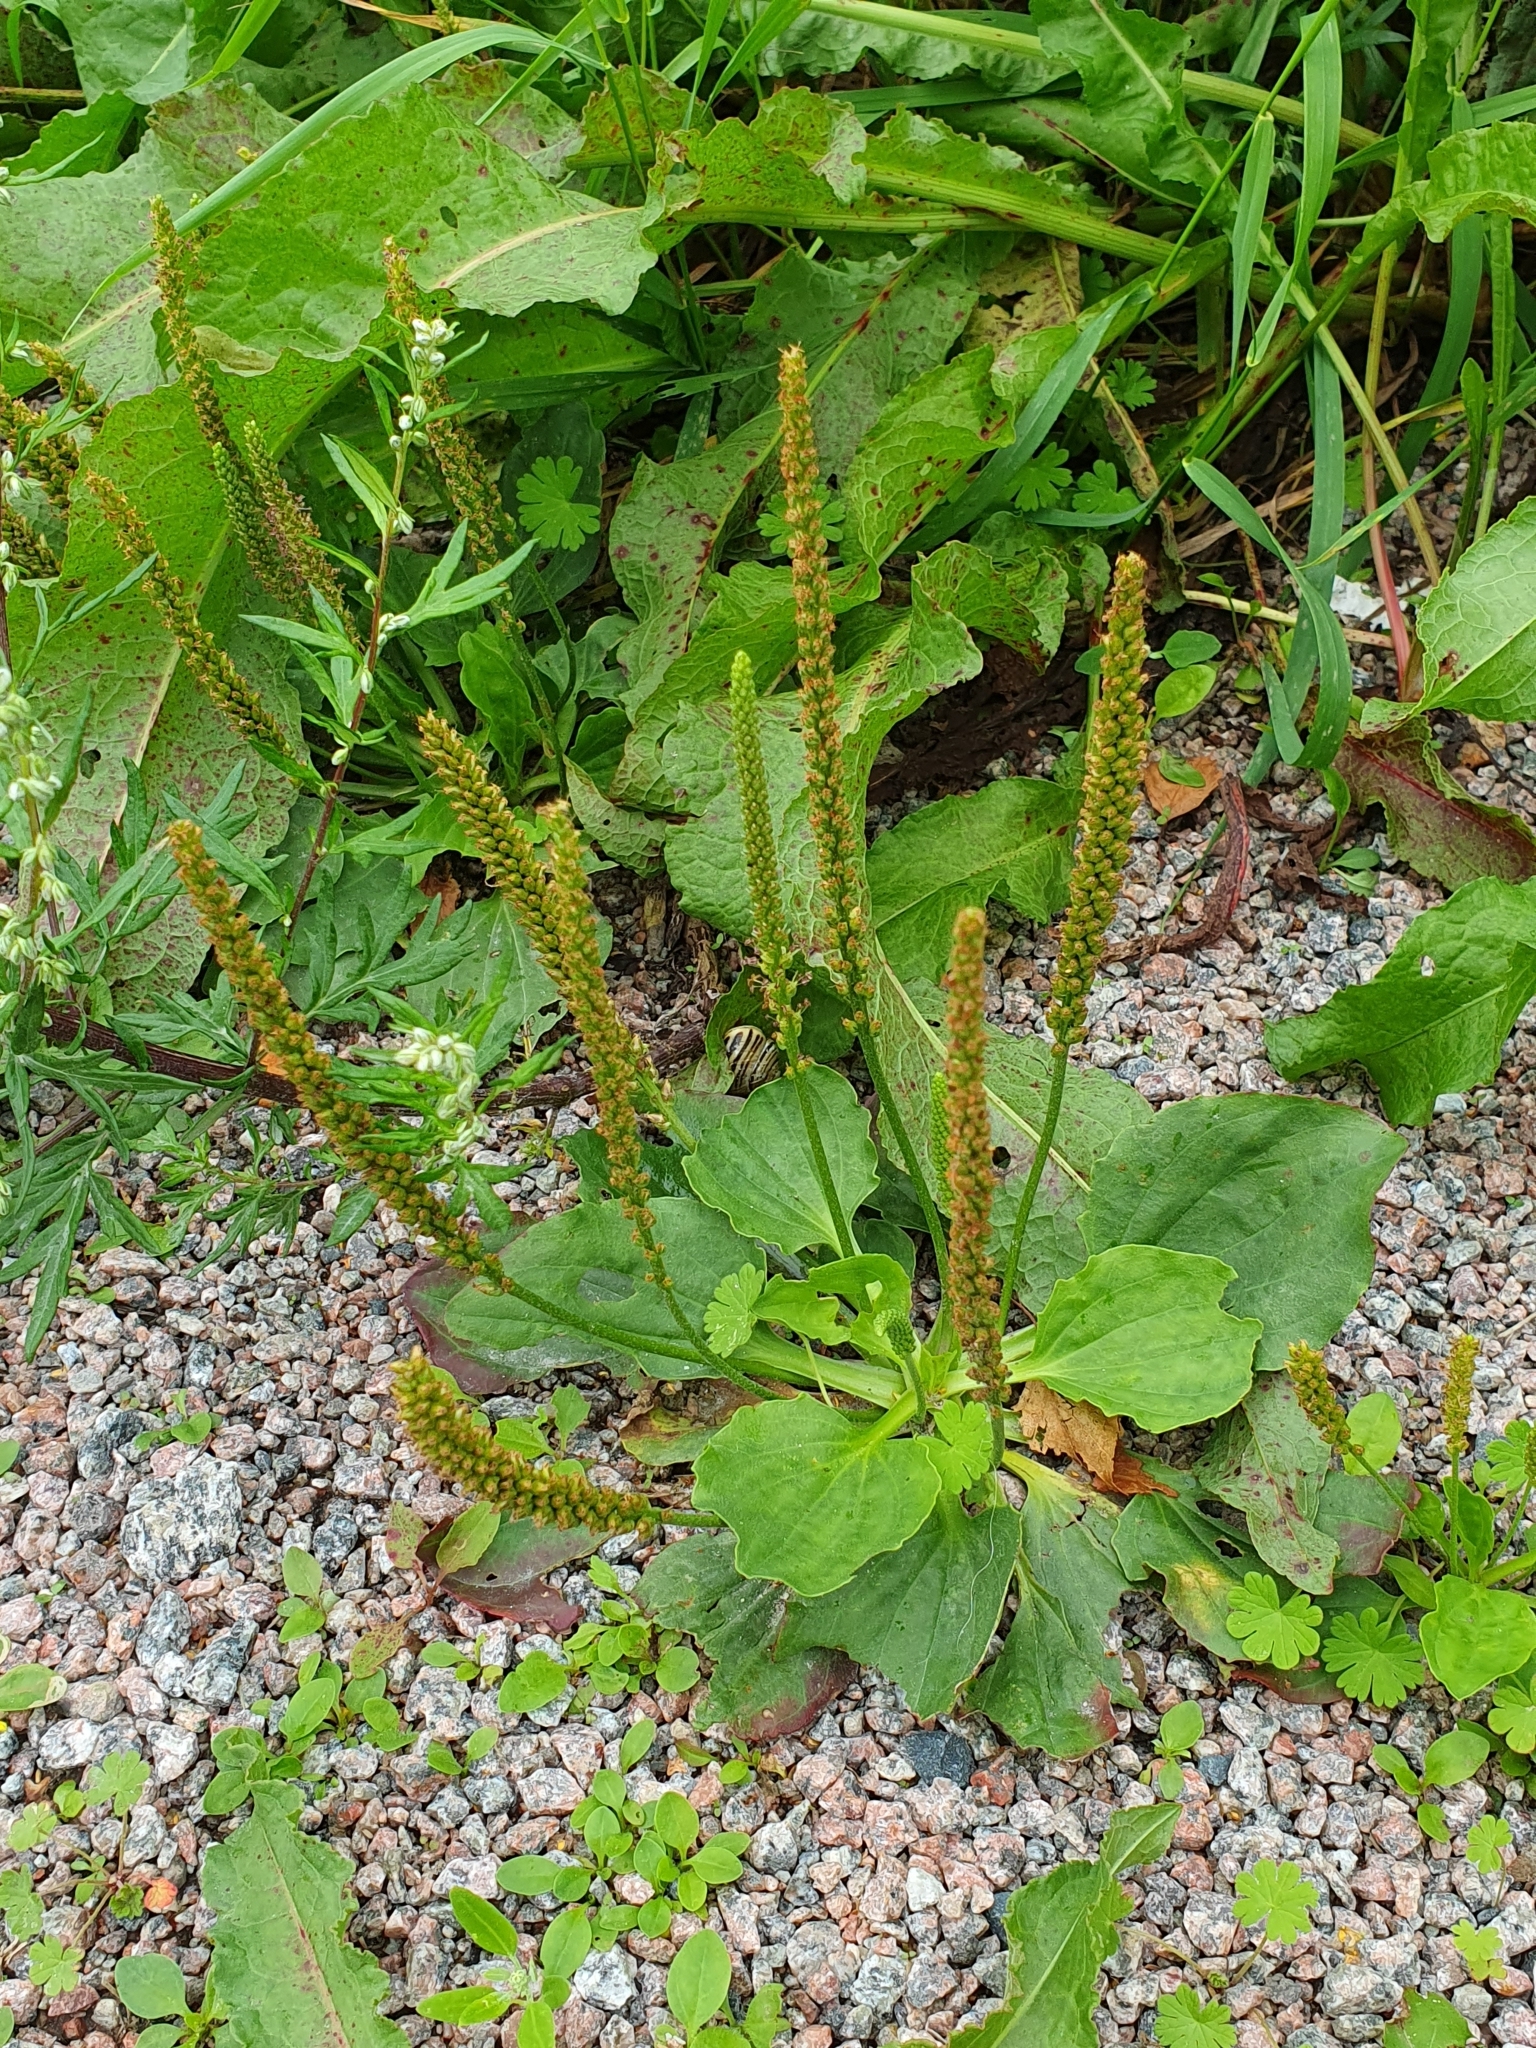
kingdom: Plantae
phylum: Tracheophyta
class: Magnoliopsida
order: Lamiales
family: Plantaginaceae
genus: Plantago
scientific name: Plantago major
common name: Common plantain
